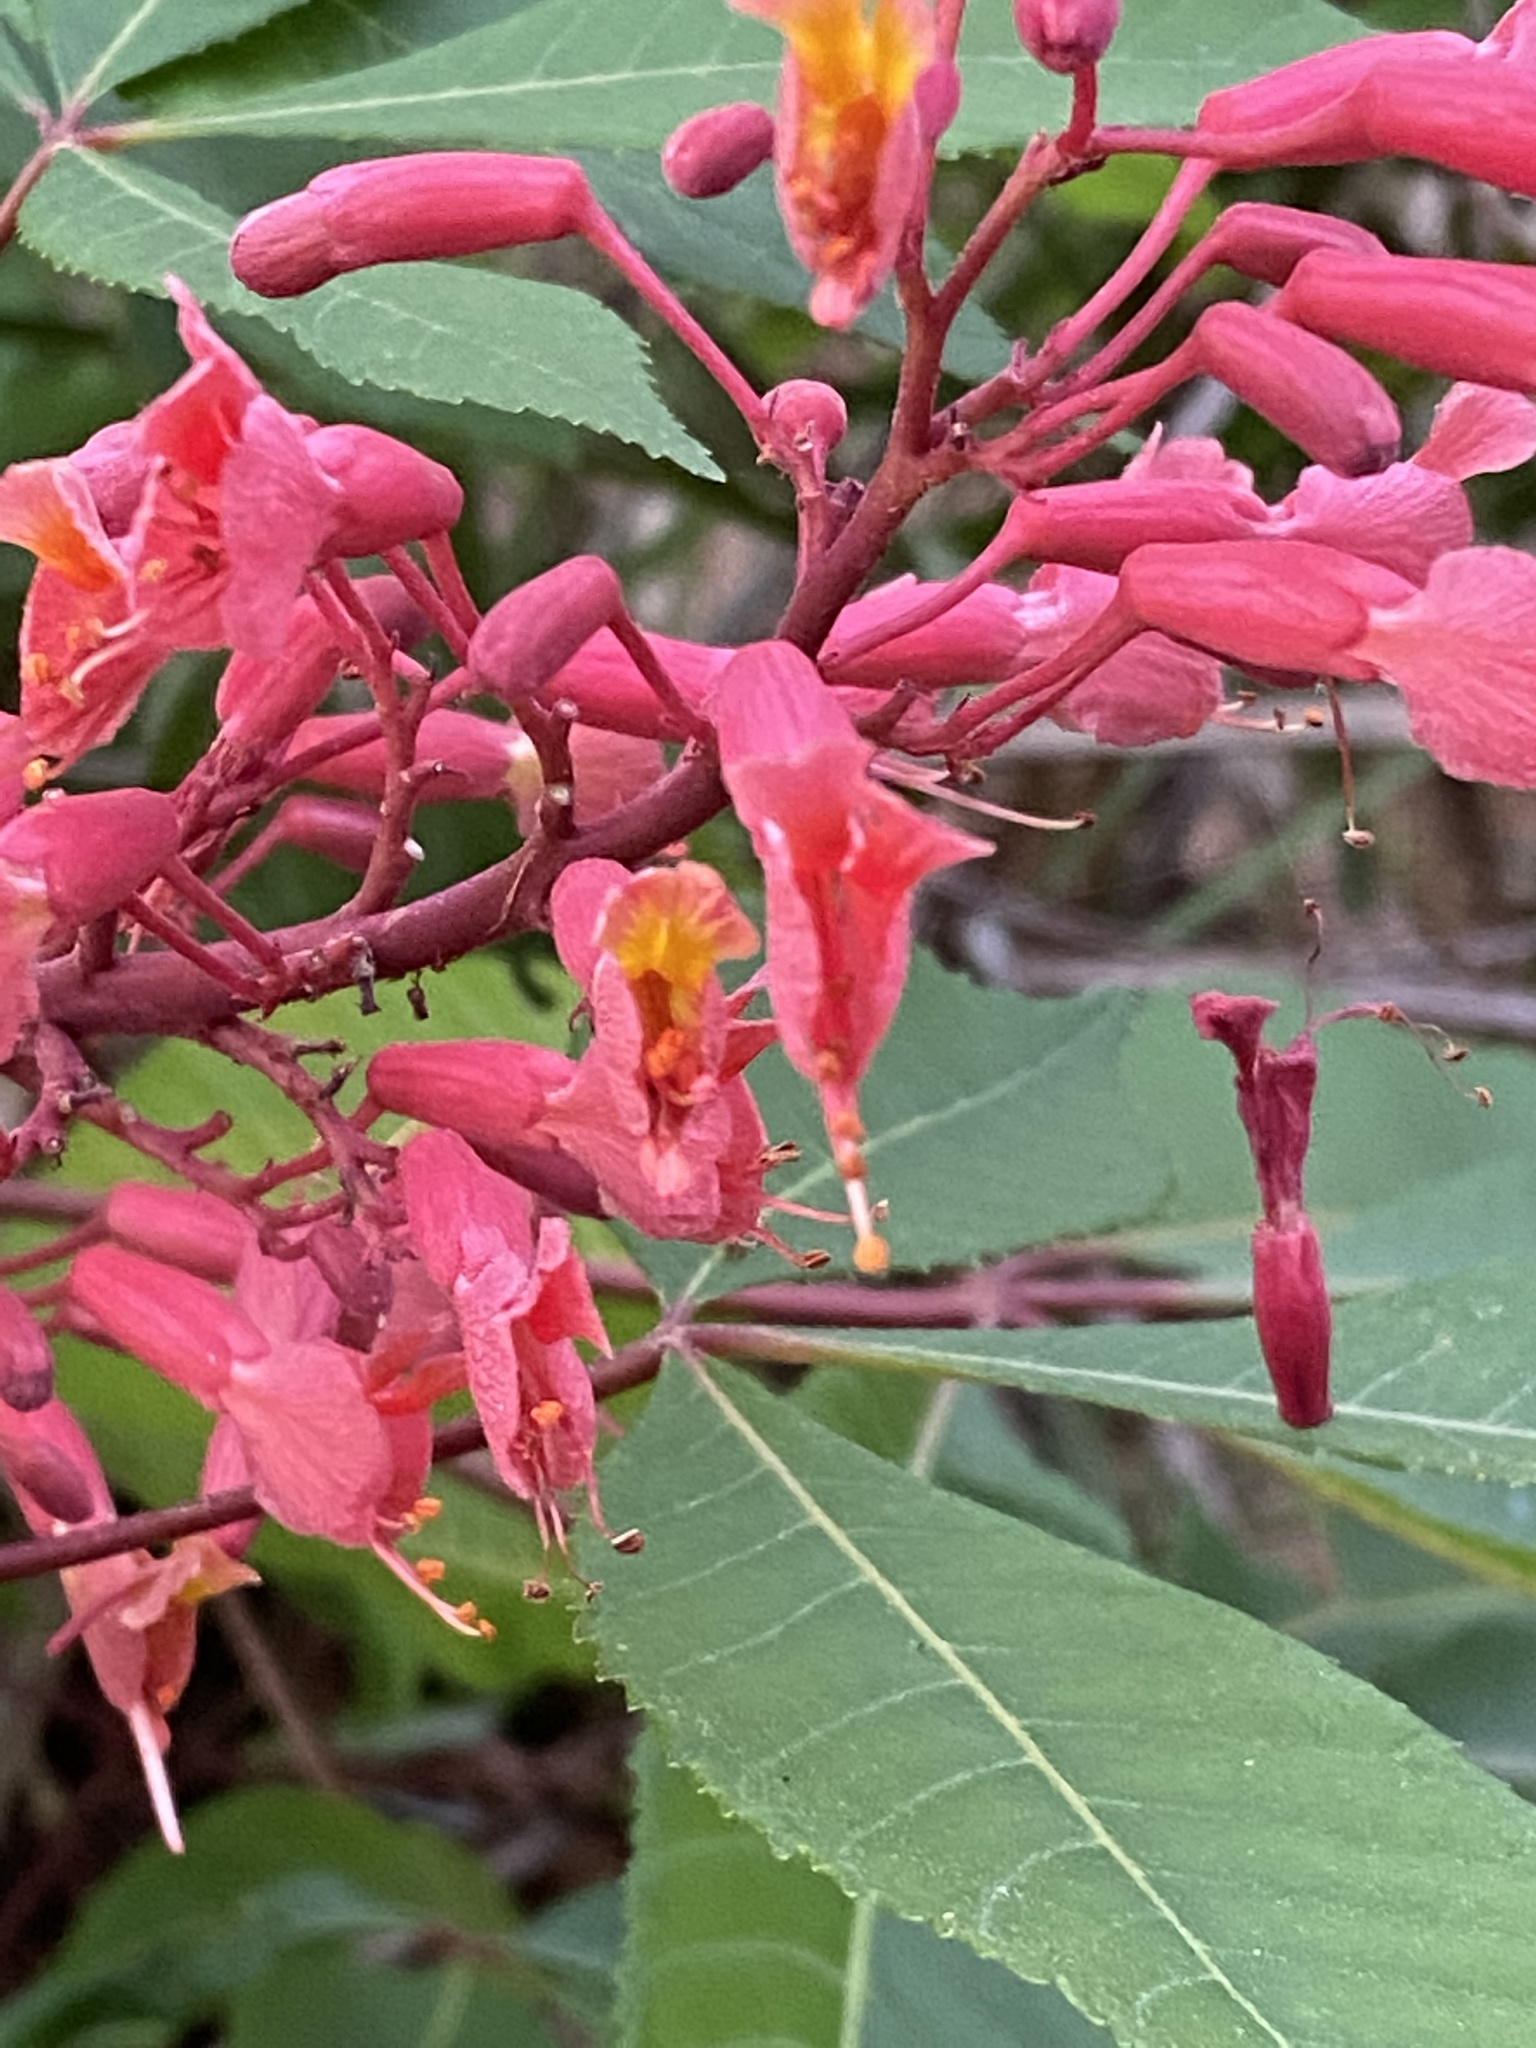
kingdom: Plantae
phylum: Tracheophyta
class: Magnoliopsida
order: Sapindales
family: Sapindaceae
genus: Aesculus
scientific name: Aesculus pavia
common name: Red buckeye
